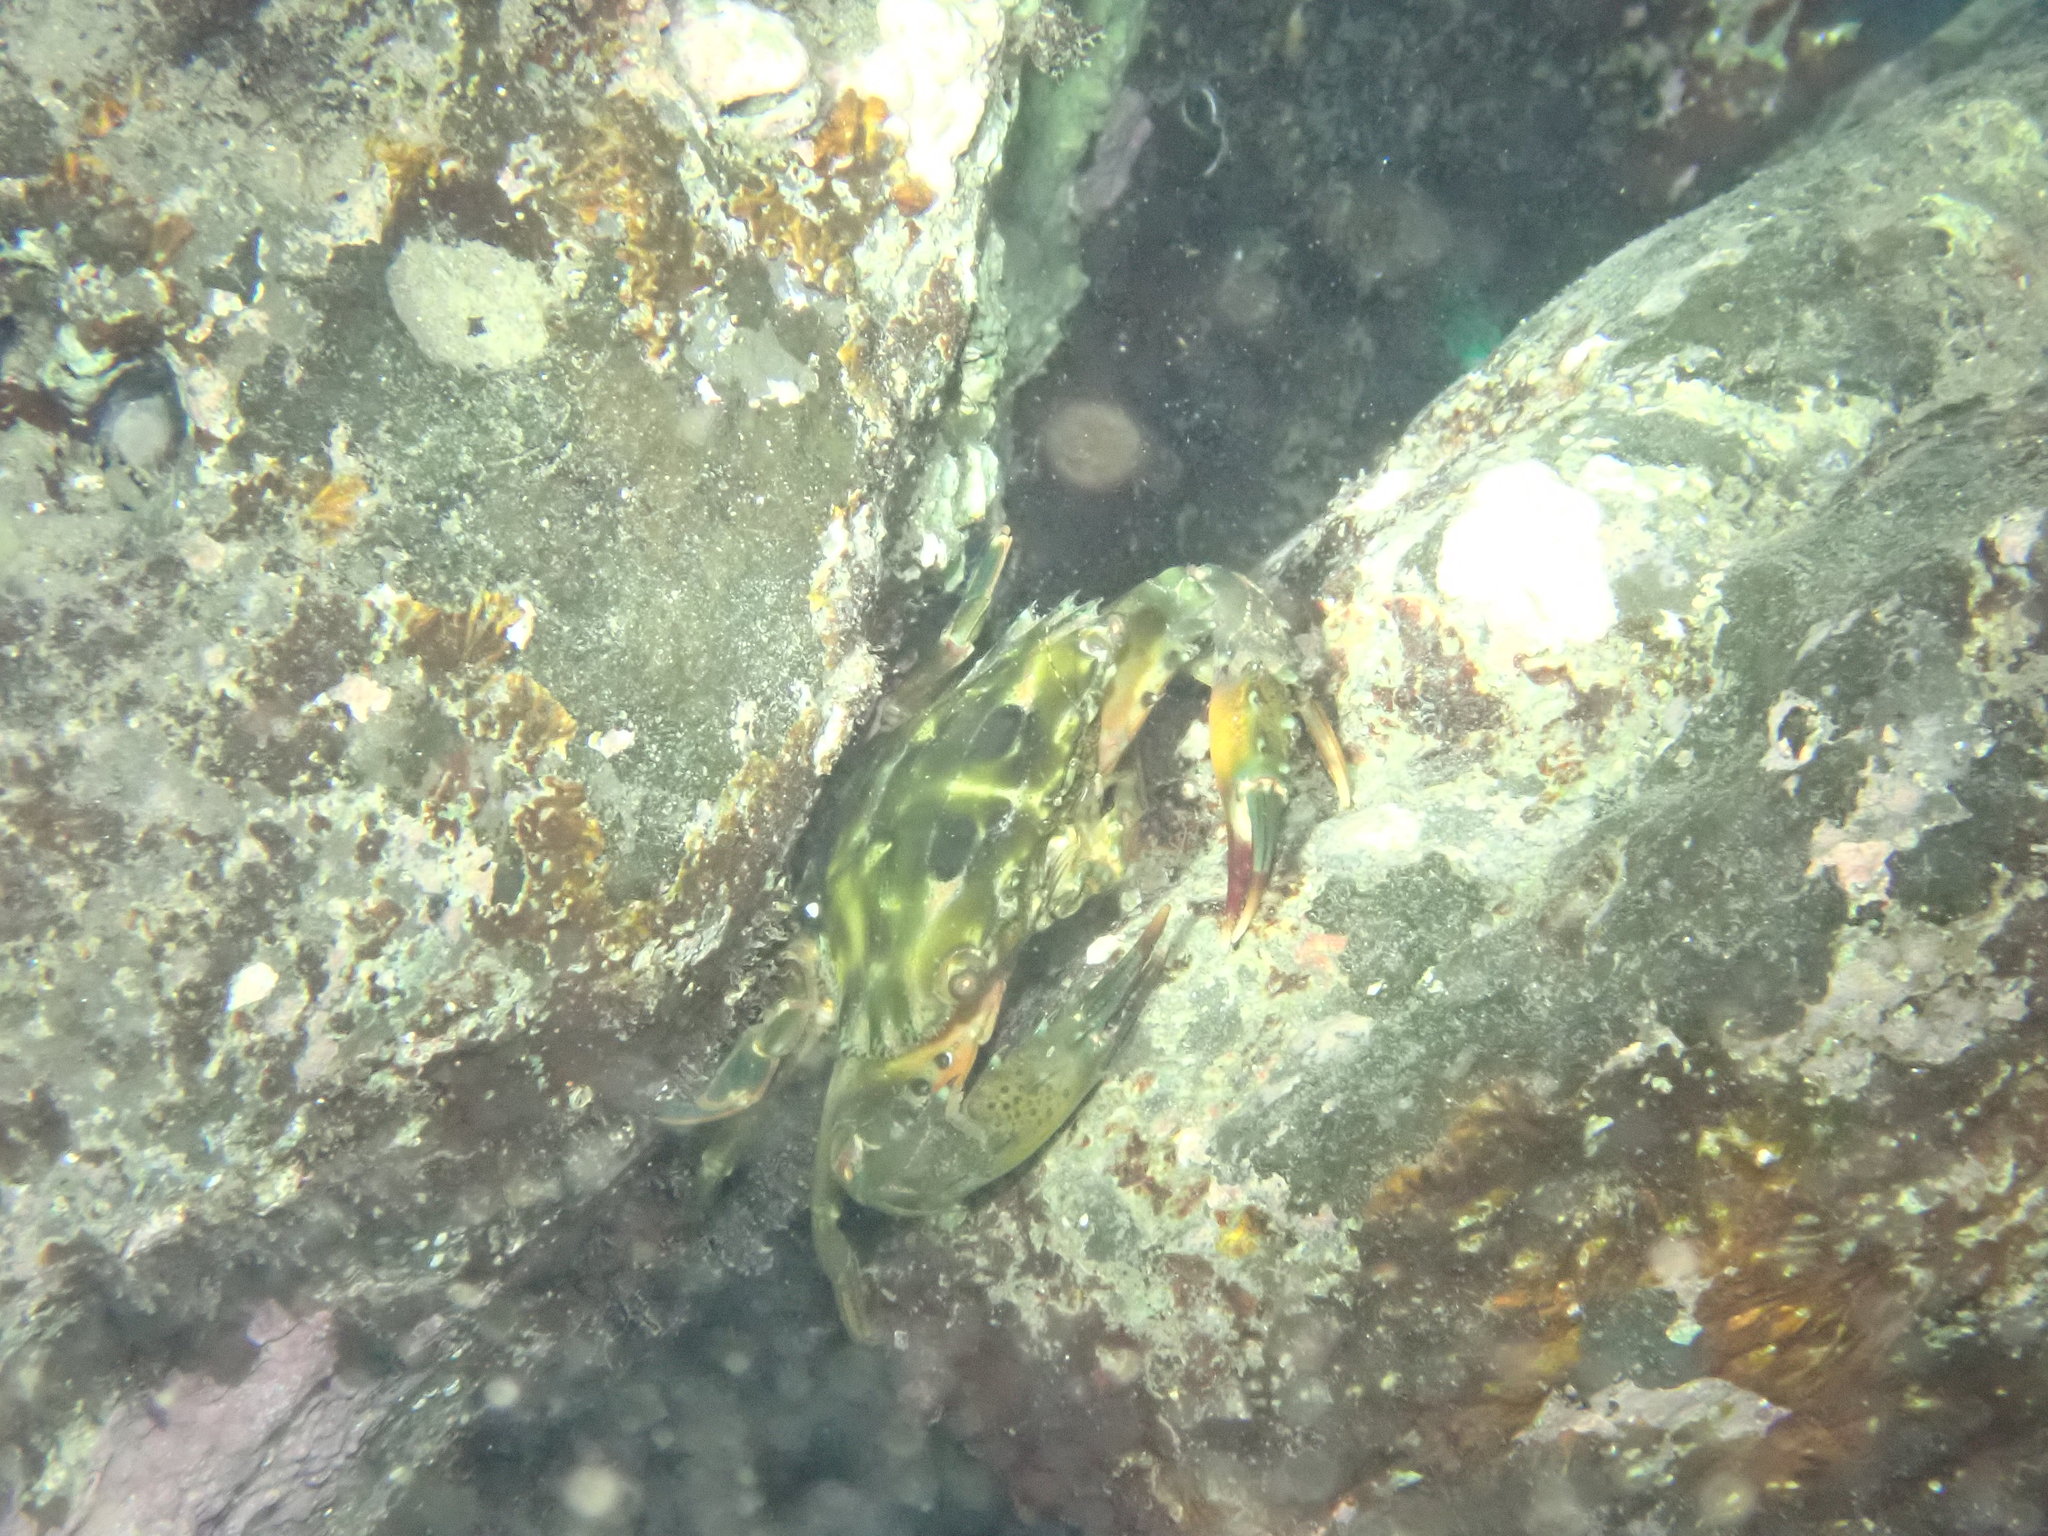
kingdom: Animalia
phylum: Arthropoda
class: Malacostraca
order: Decapoda
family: Portunidae
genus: Thalamita
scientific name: Thalamita prymna
